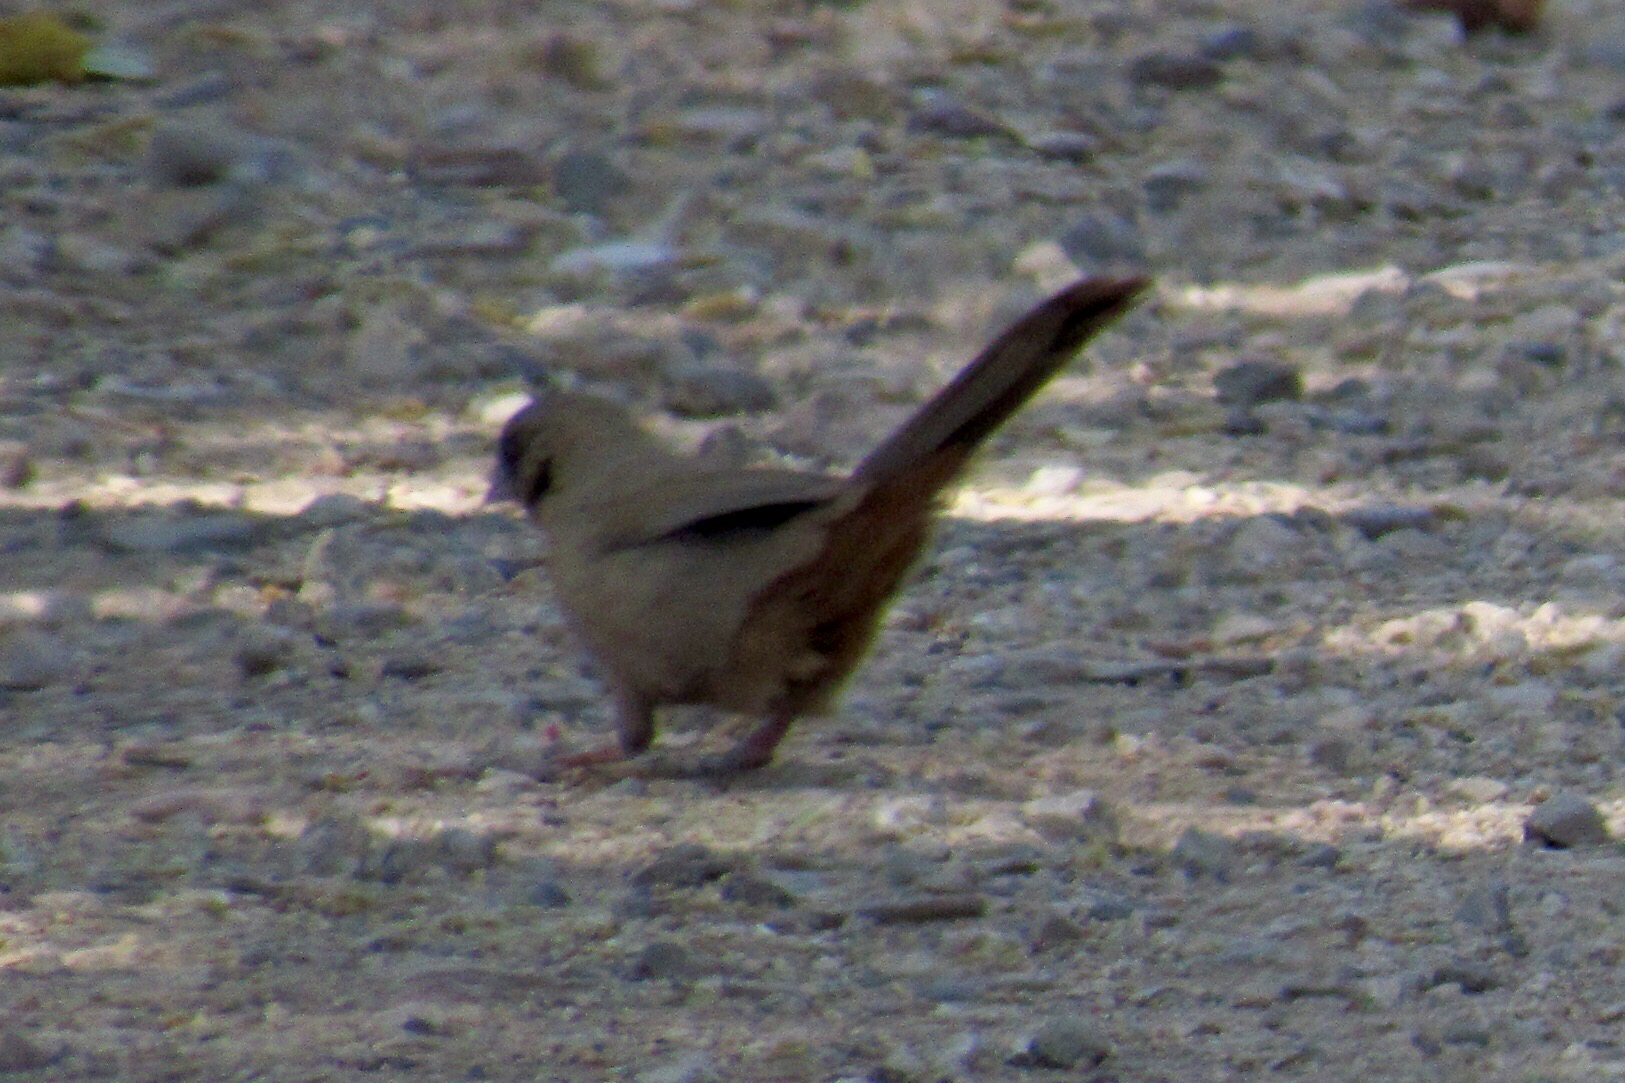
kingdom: Animalia
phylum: Chordata
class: Aves
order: Passeriformes
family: Passerellidae
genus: Melozone
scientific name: Melozone aberti
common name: Abert's towhee
